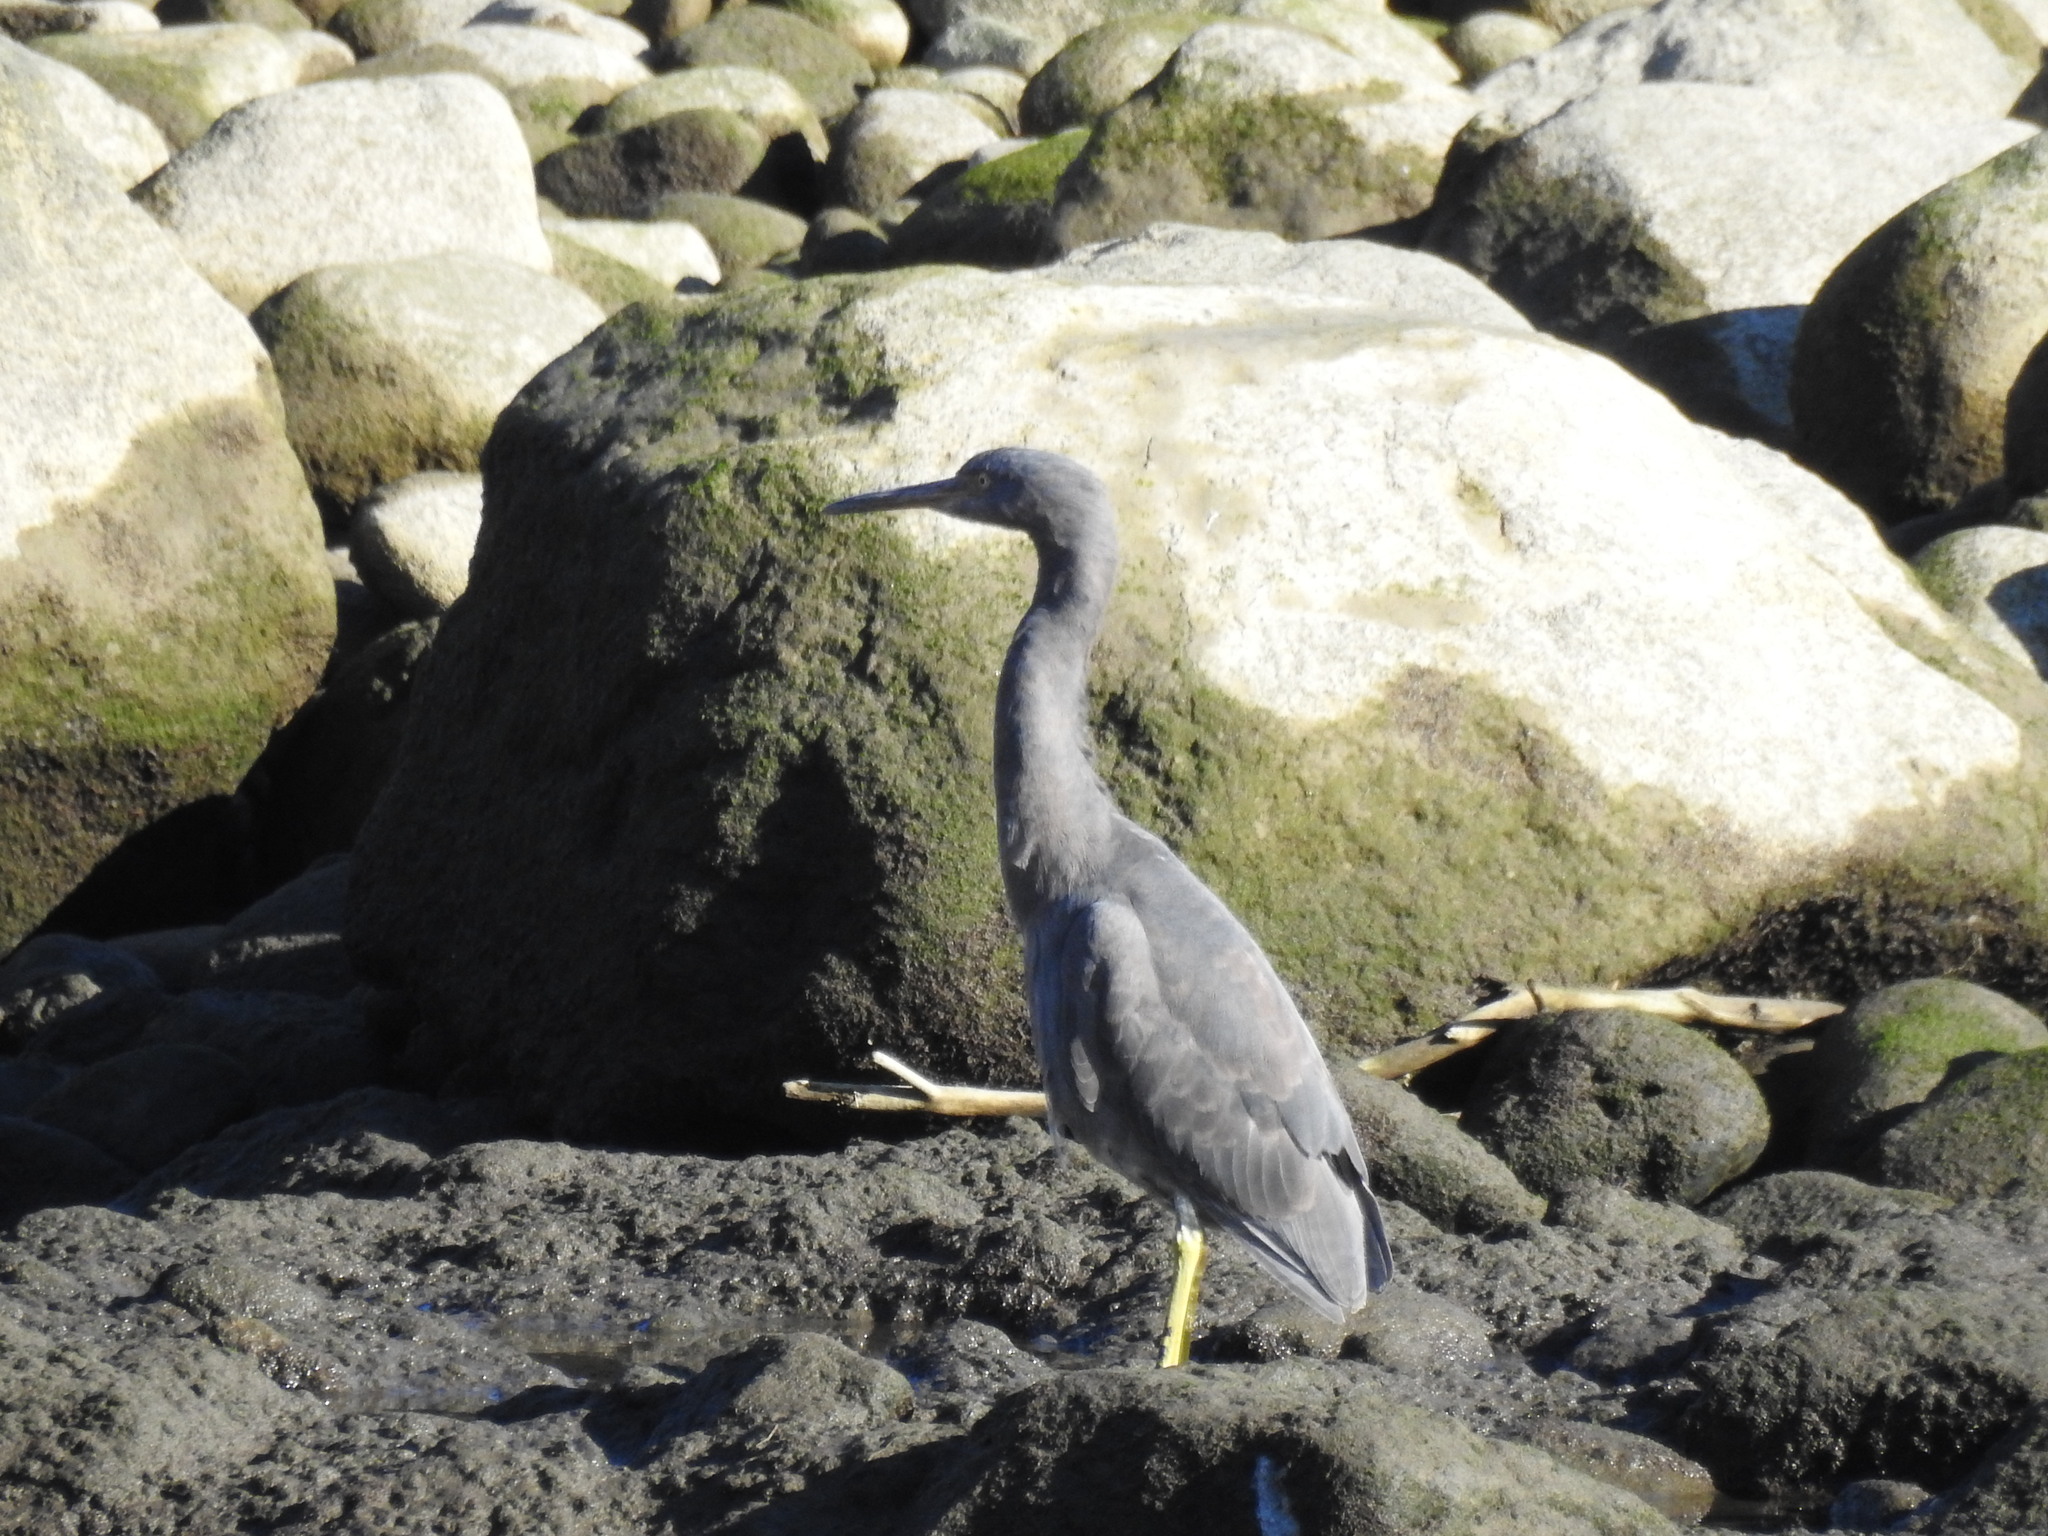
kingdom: Animalia
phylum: Chordata
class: Aves
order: Pelecaniformes
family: Ardeidae
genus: Egretta
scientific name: Egretta sacra
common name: Pacific reef heron
